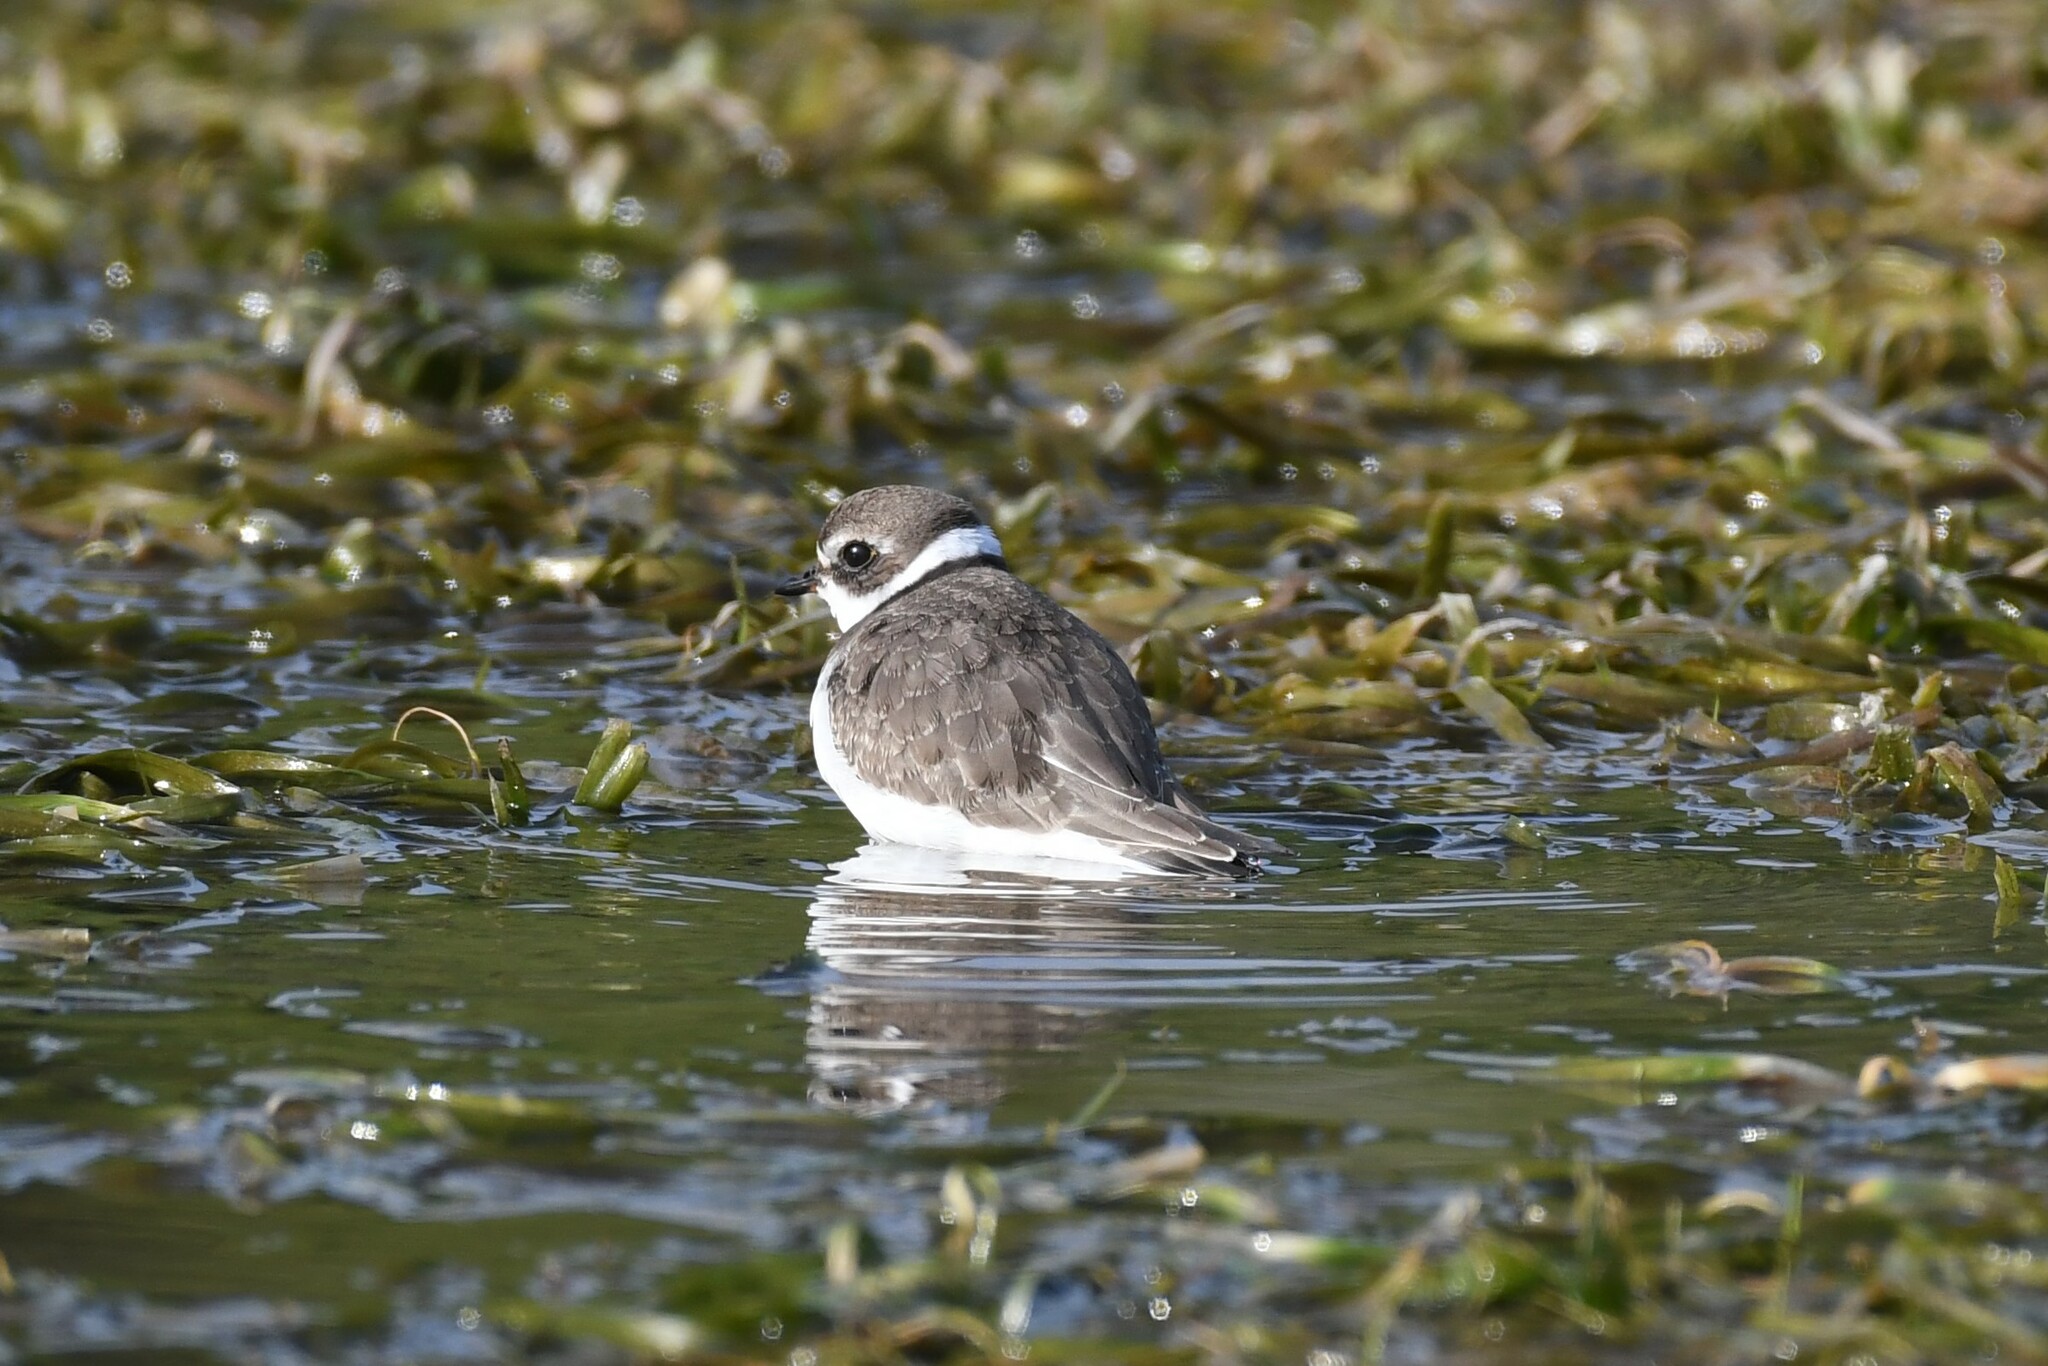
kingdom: Animalia
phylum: Chordata
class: Aves
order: Charadriiformes
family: Charadriidae
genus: Charadrius
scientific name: Charadrius semipalmatus
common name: Semipalmated plover
